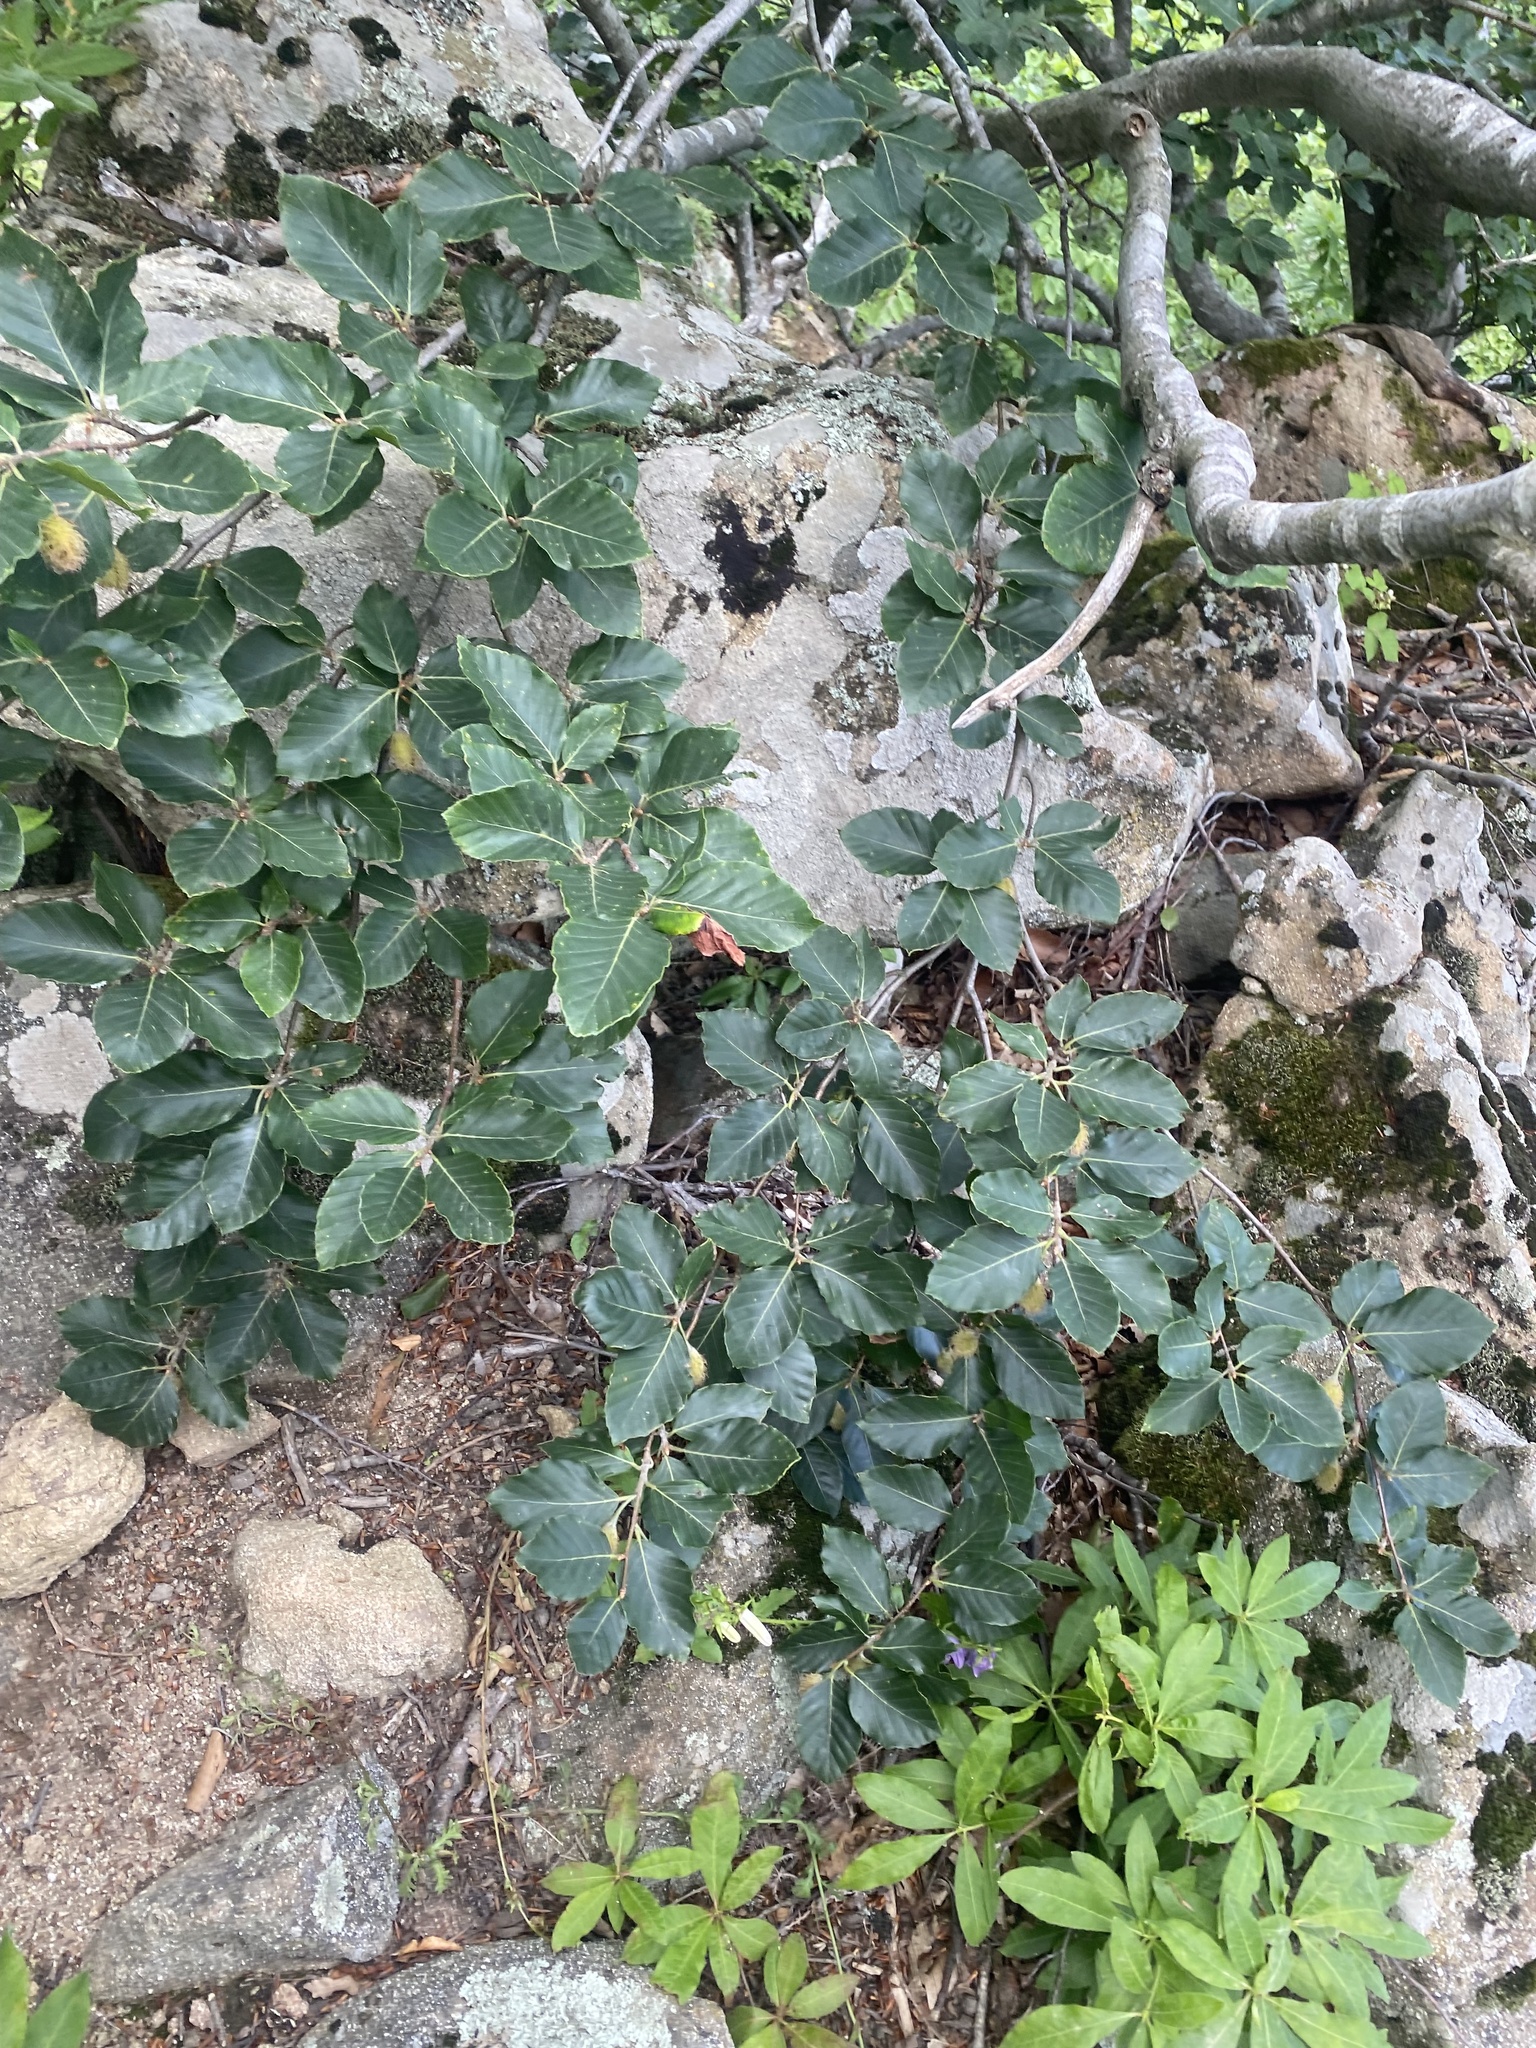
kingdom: Plantae
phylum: Tracheophyta
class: Magnoliopsida
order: Fagales
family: Fagaceae
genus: Fagus
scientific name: Fagus orientalis
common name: Oriental beech
